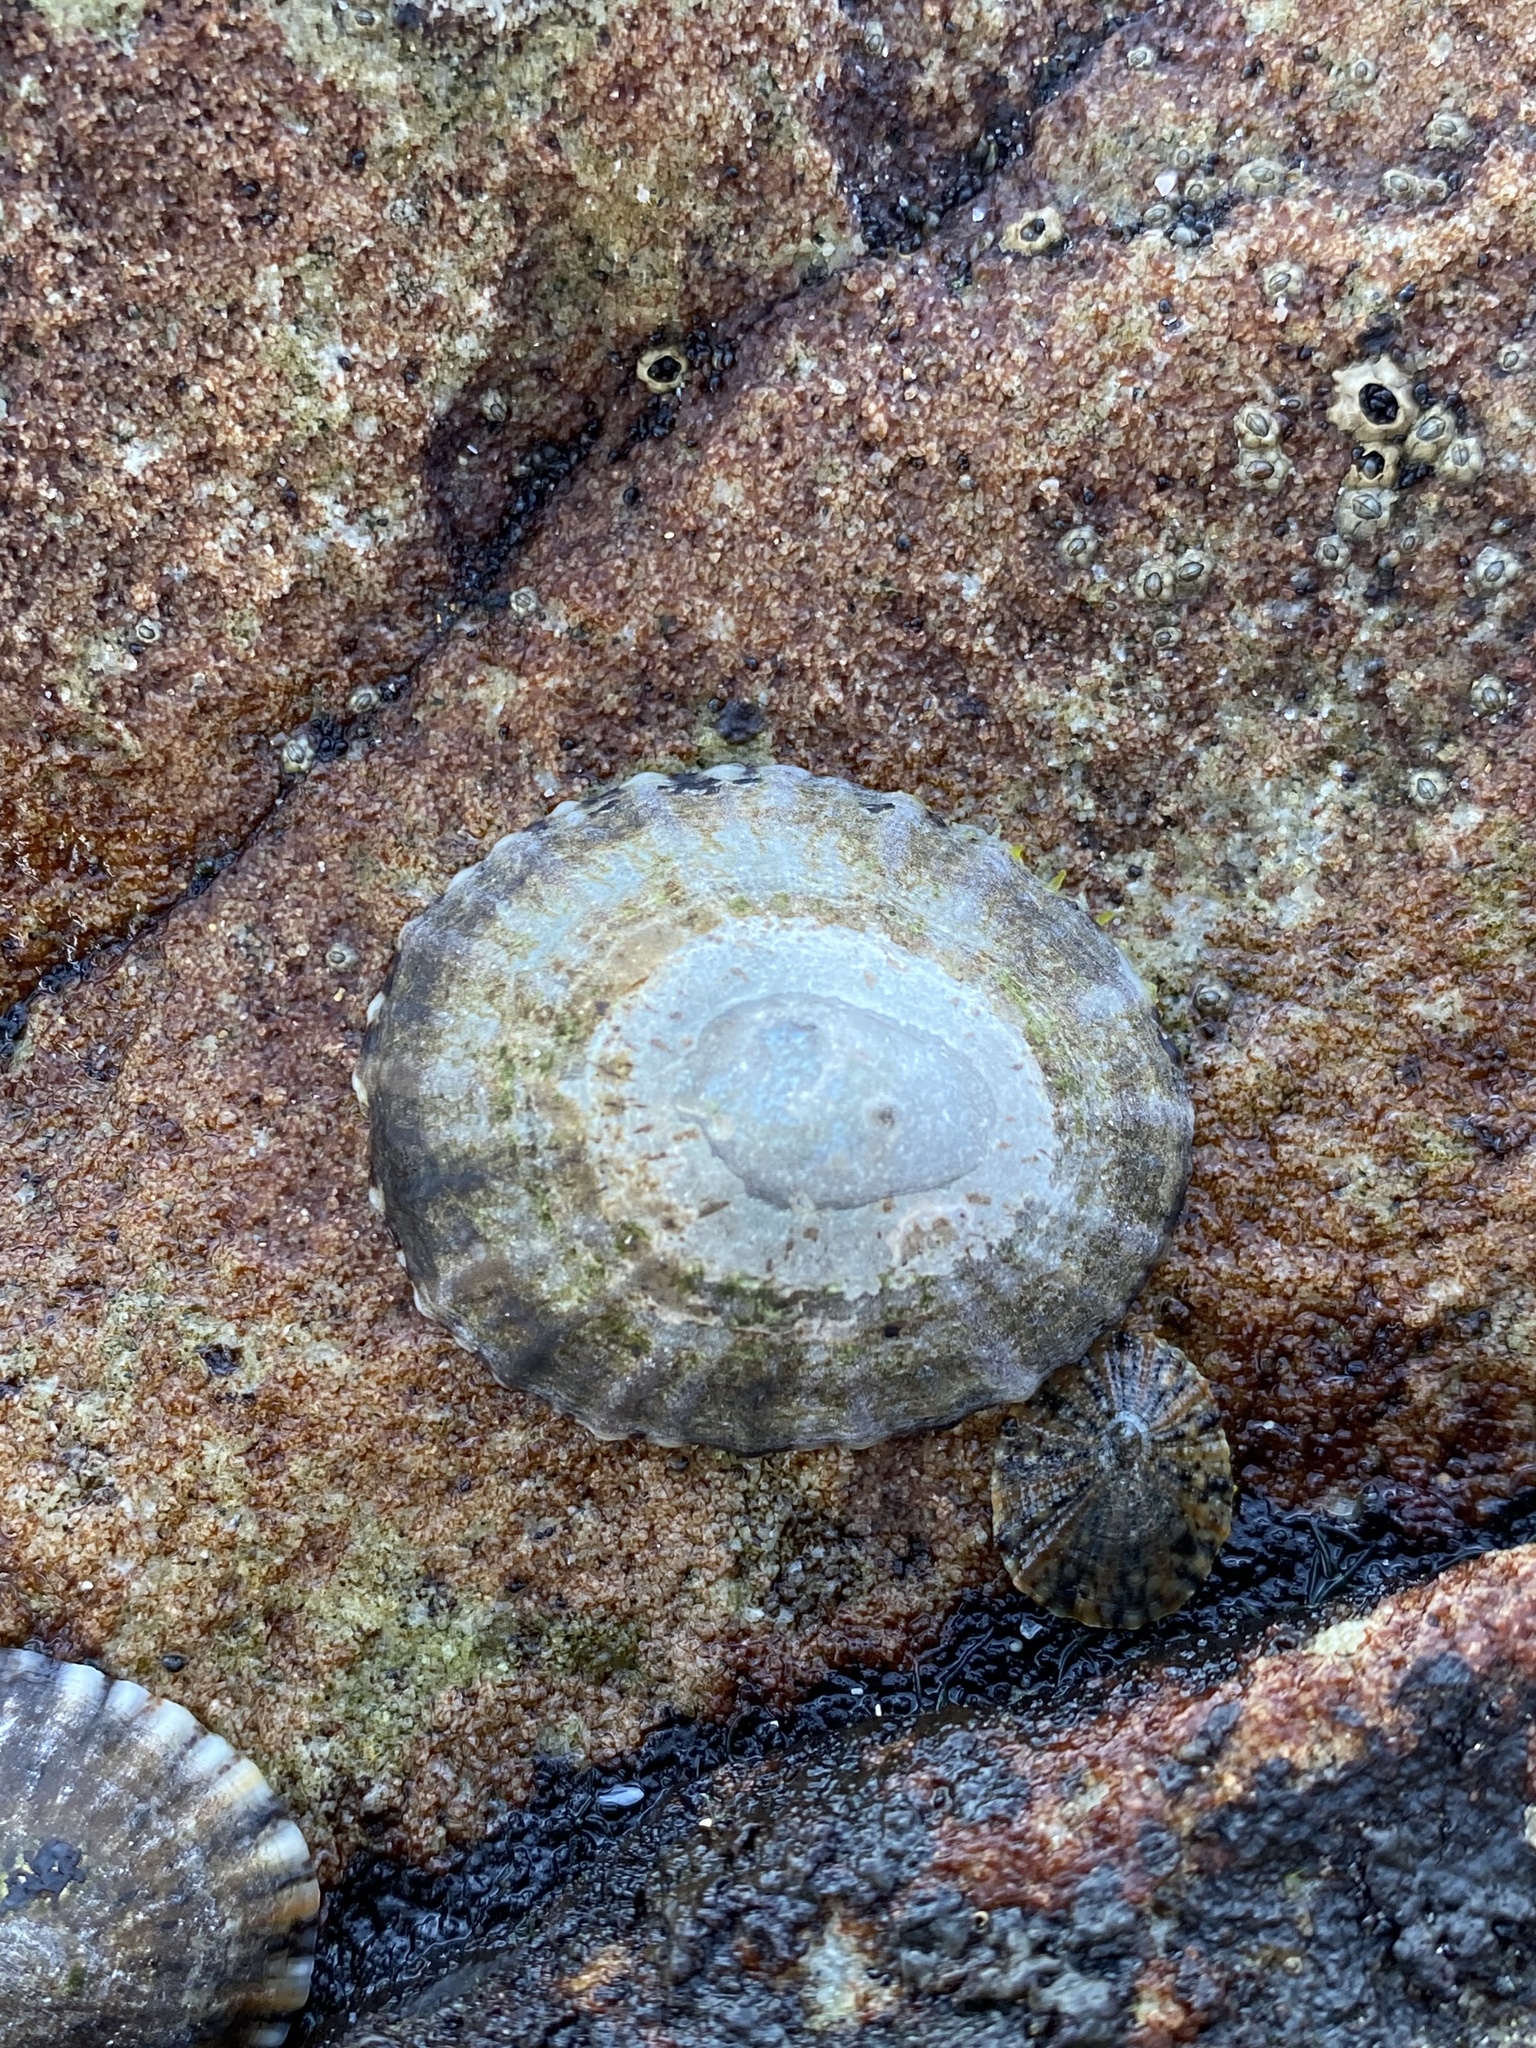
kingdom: Animalia
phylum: Mollusca
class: Gastropoda
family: Nacellidae
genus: Cellana
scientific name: Cellana tramoserica
